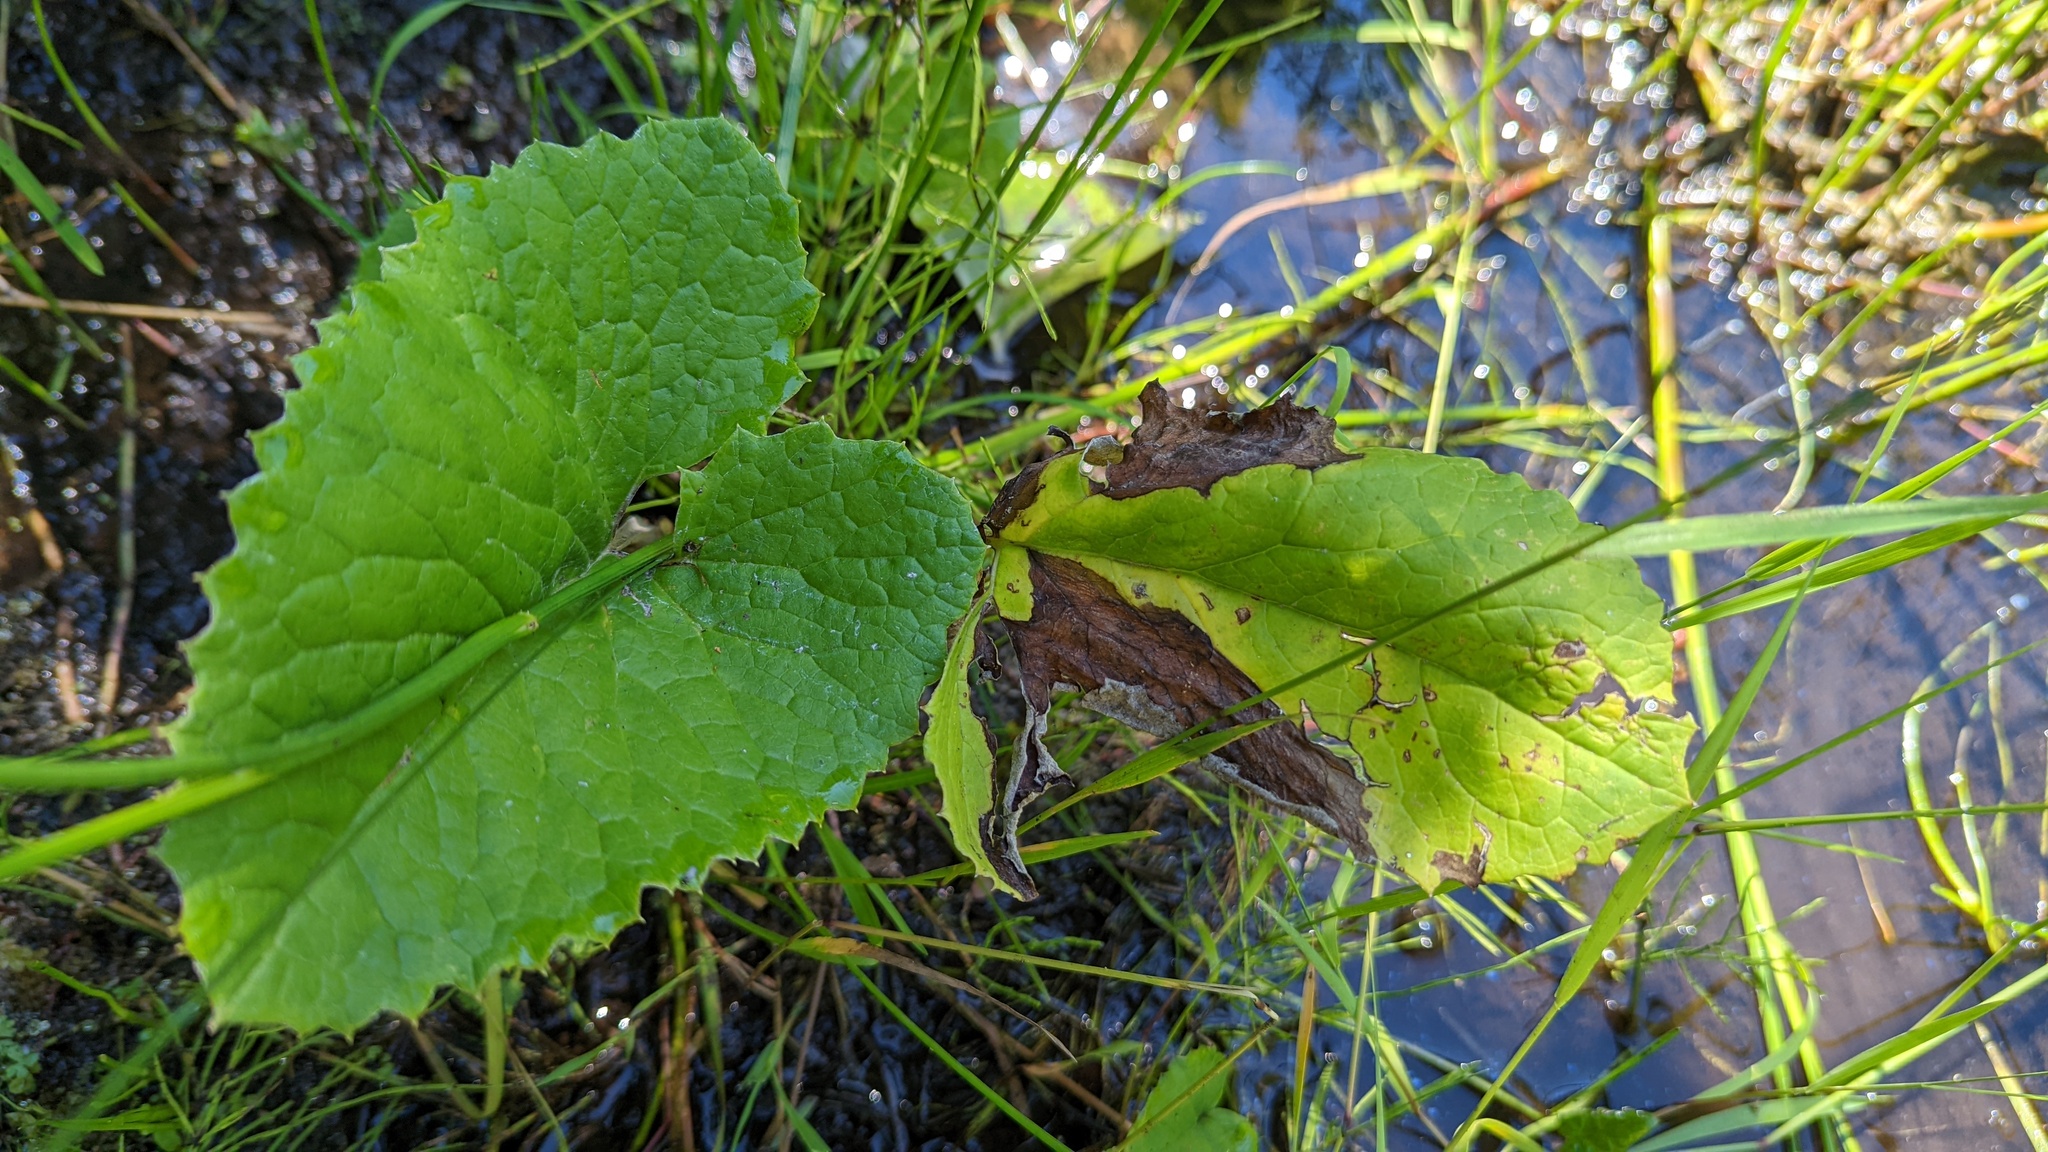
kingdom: Plantae
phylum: Tracheophyta
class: Magnoliopsida
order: Asterales
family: Asteraceae
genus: Petasites
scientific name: Petasites frigidus
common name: Arctic butterbur
